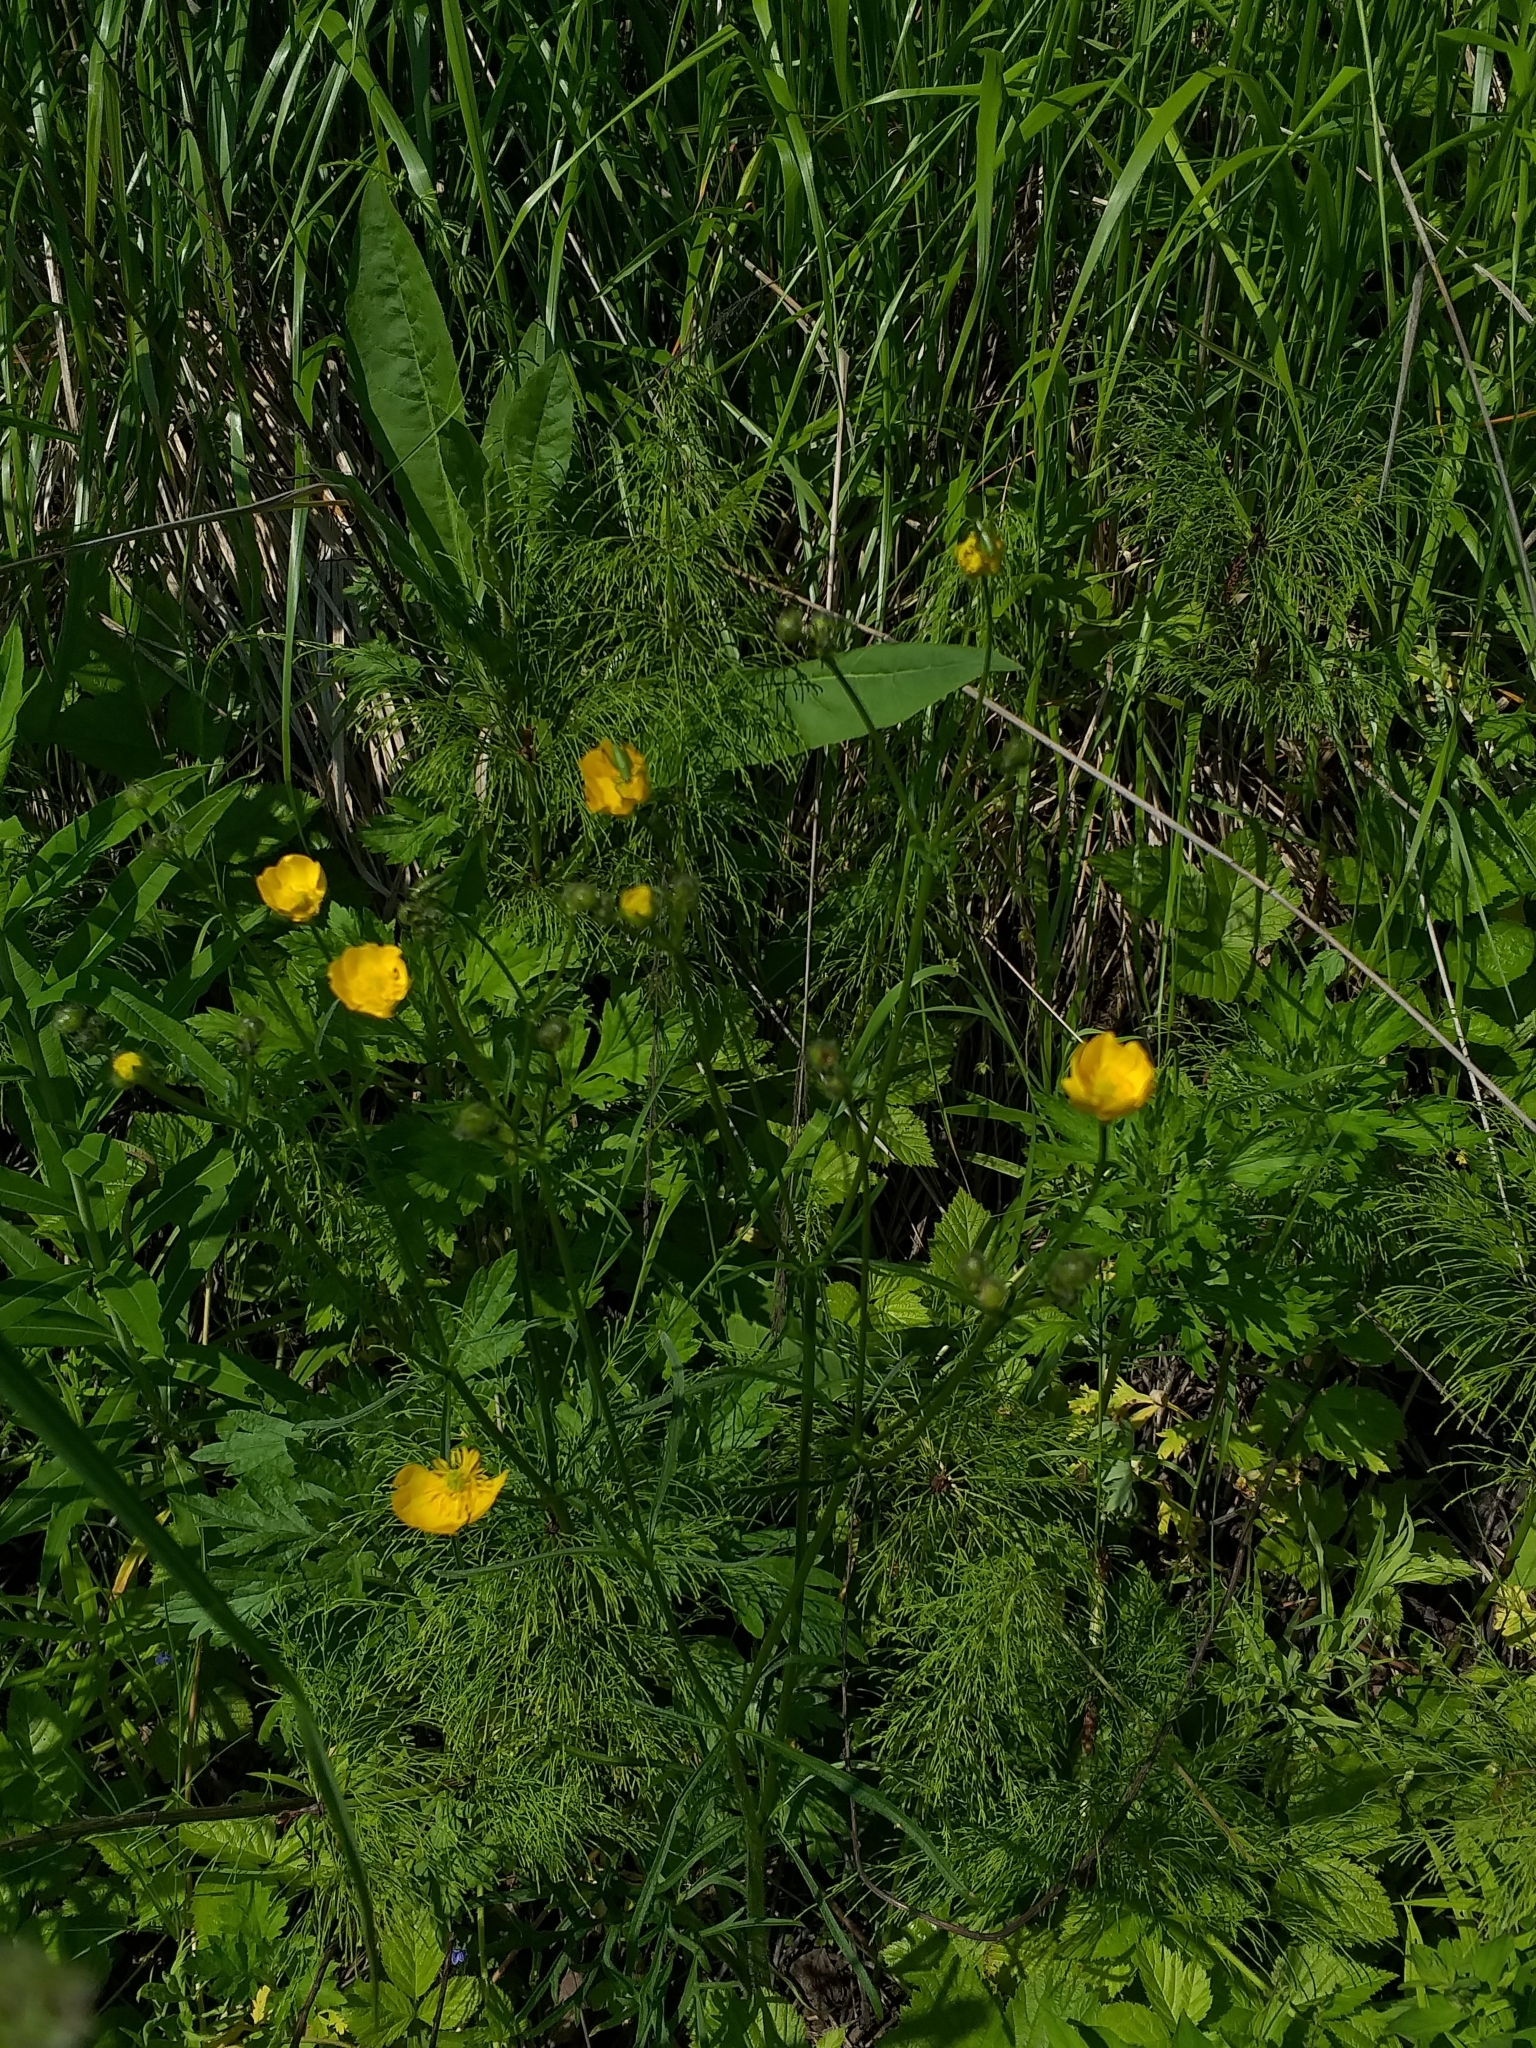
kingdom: Plantae
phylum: Tracheophyta
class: Magnoliopsida
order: Ranunculales
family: Ranunculaceae
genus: Ranunculus
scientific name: Ranunculus polyanthemos
